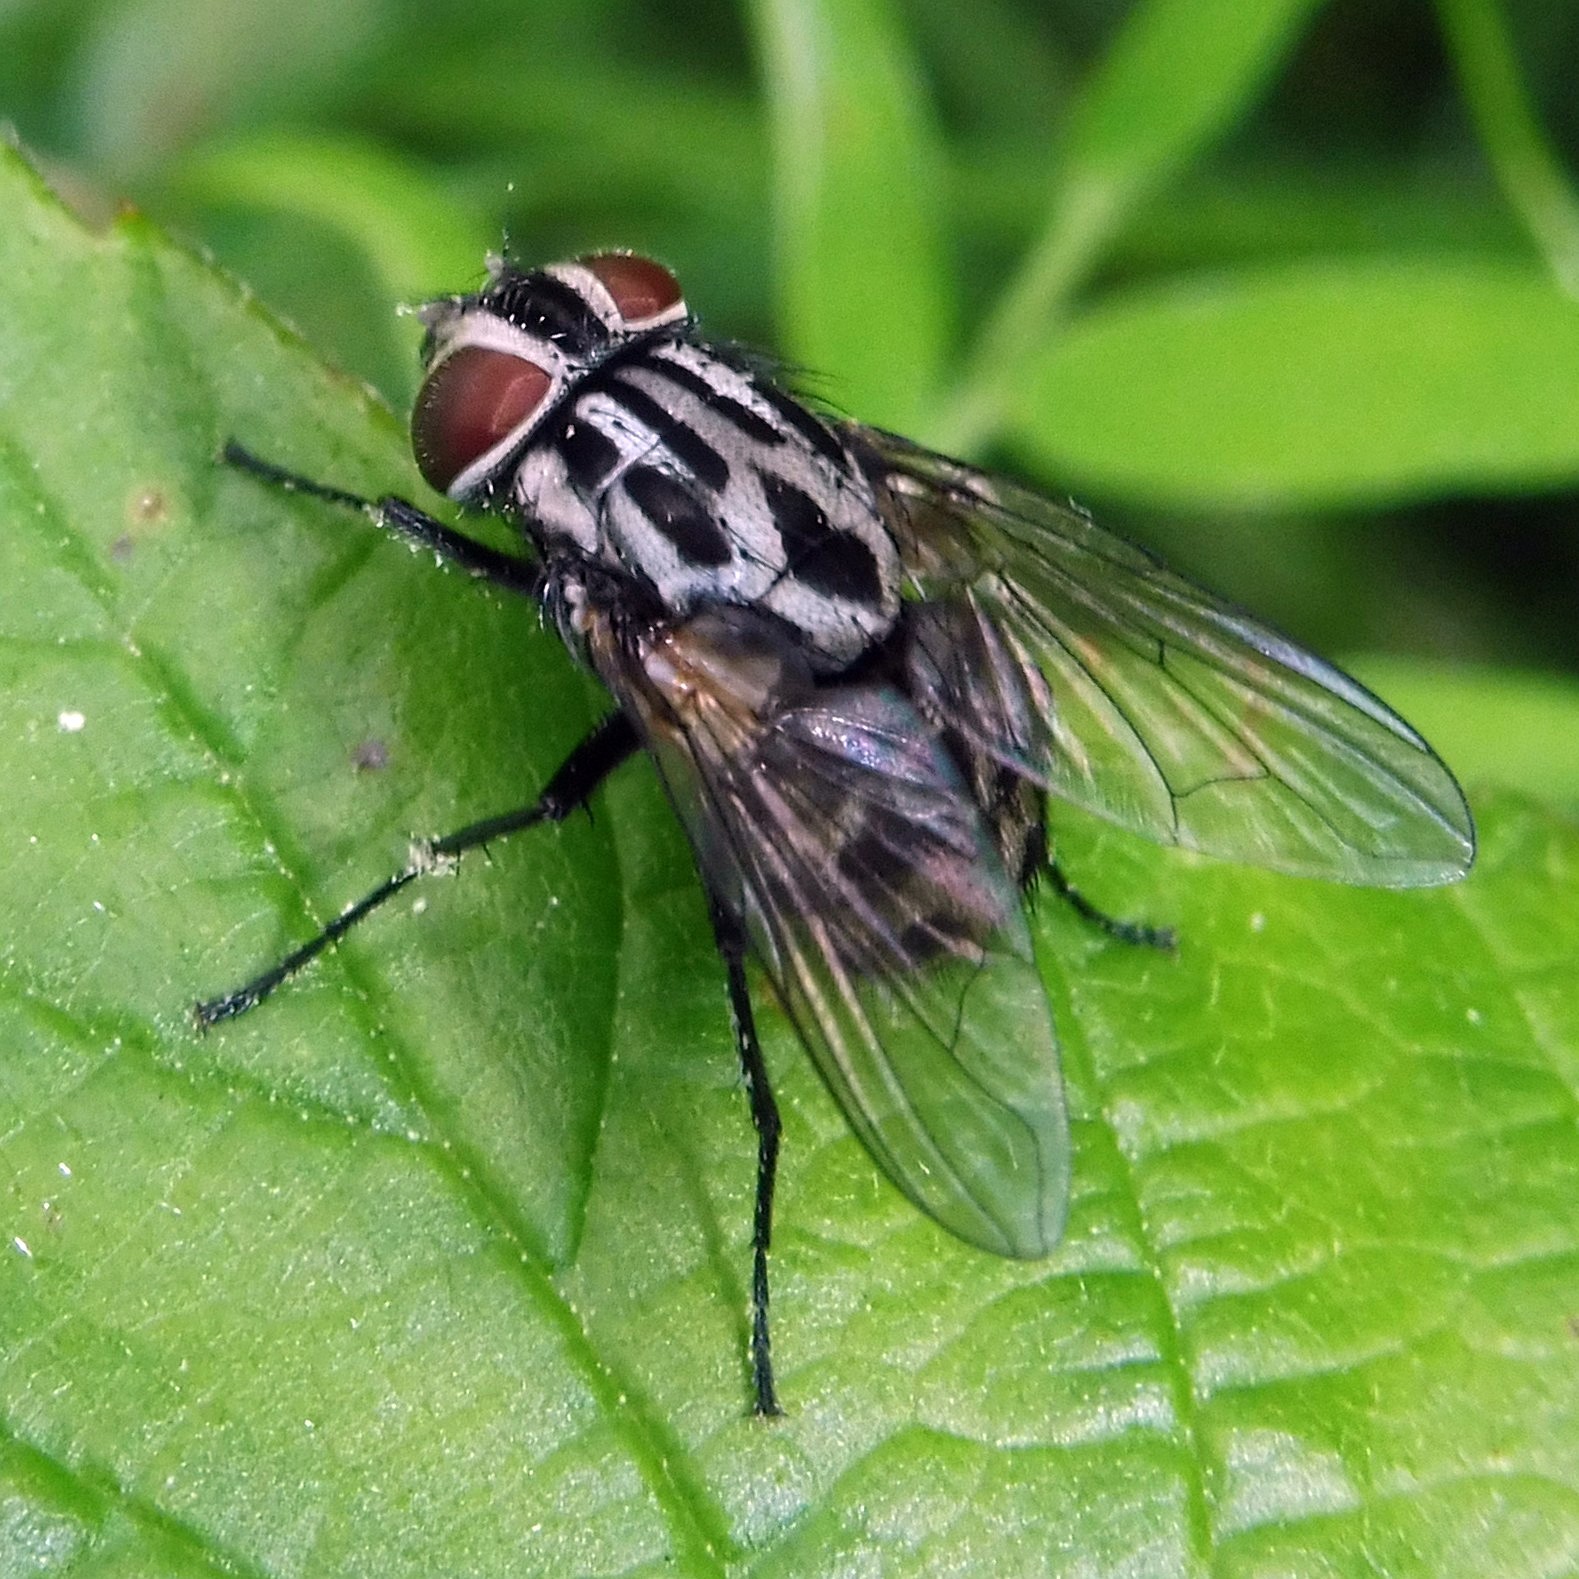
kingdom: Animalia
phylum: Arthropoda
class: Insecta
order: Diptera
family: Muscidae
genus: Graphomya
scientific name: Graphomya maculata
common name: Muscid fly
